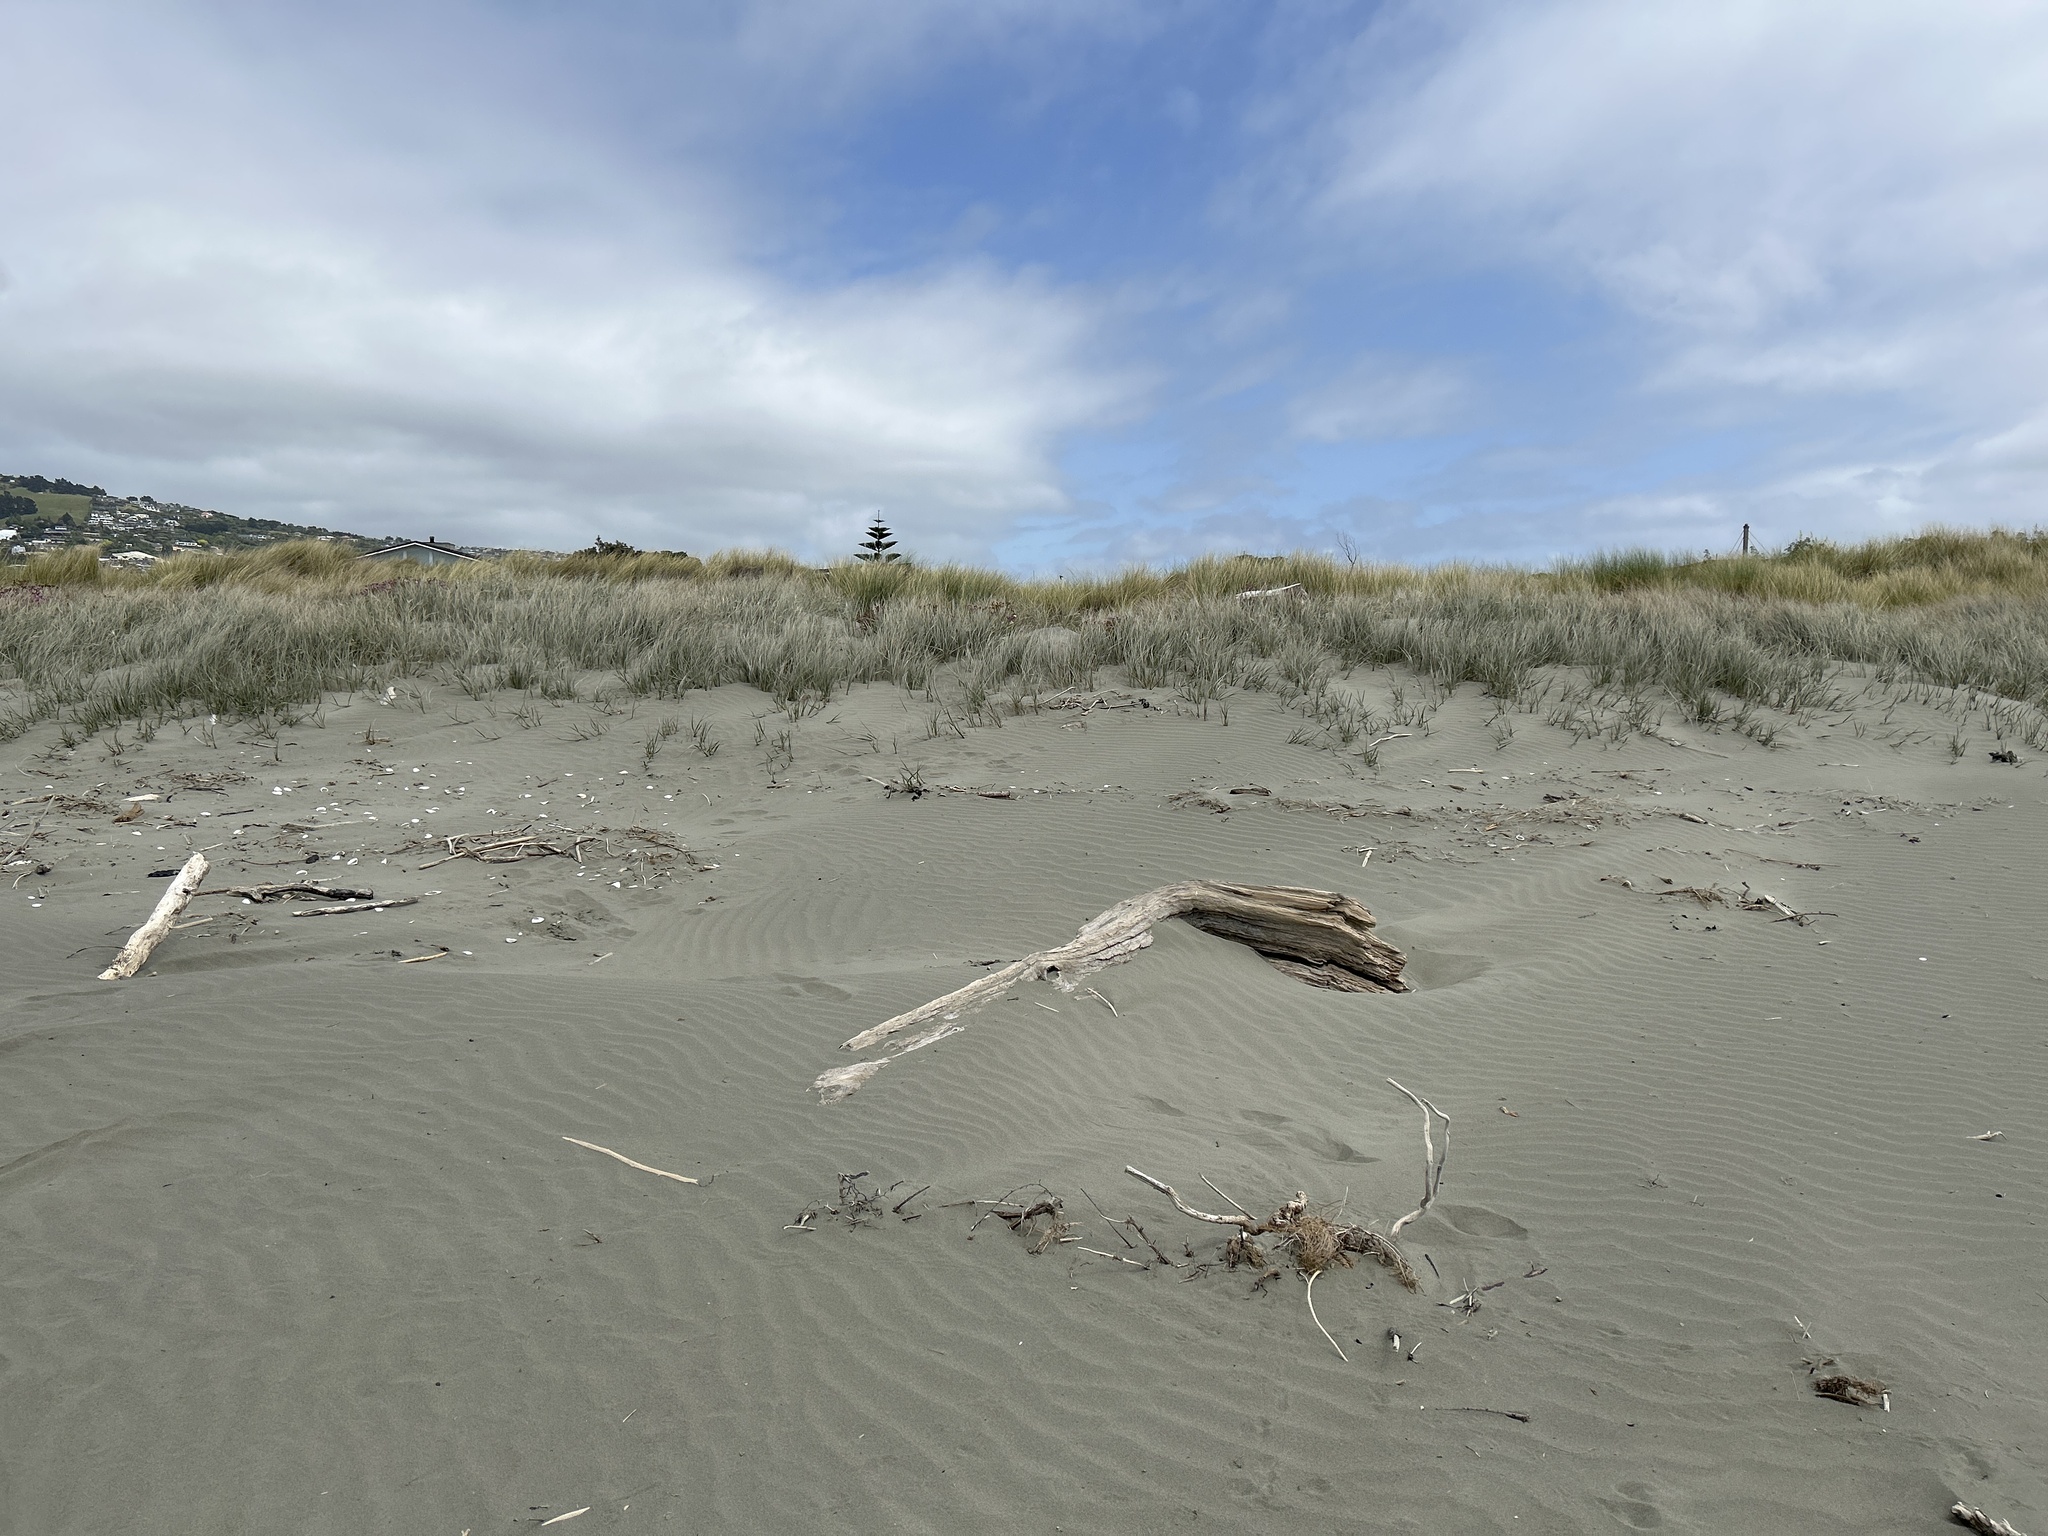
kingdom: Plantae
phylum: Tracheophyta
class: Liliopsida
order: Poales
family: Poaceae
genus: Spinifex
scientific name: Spinifex sericeus
